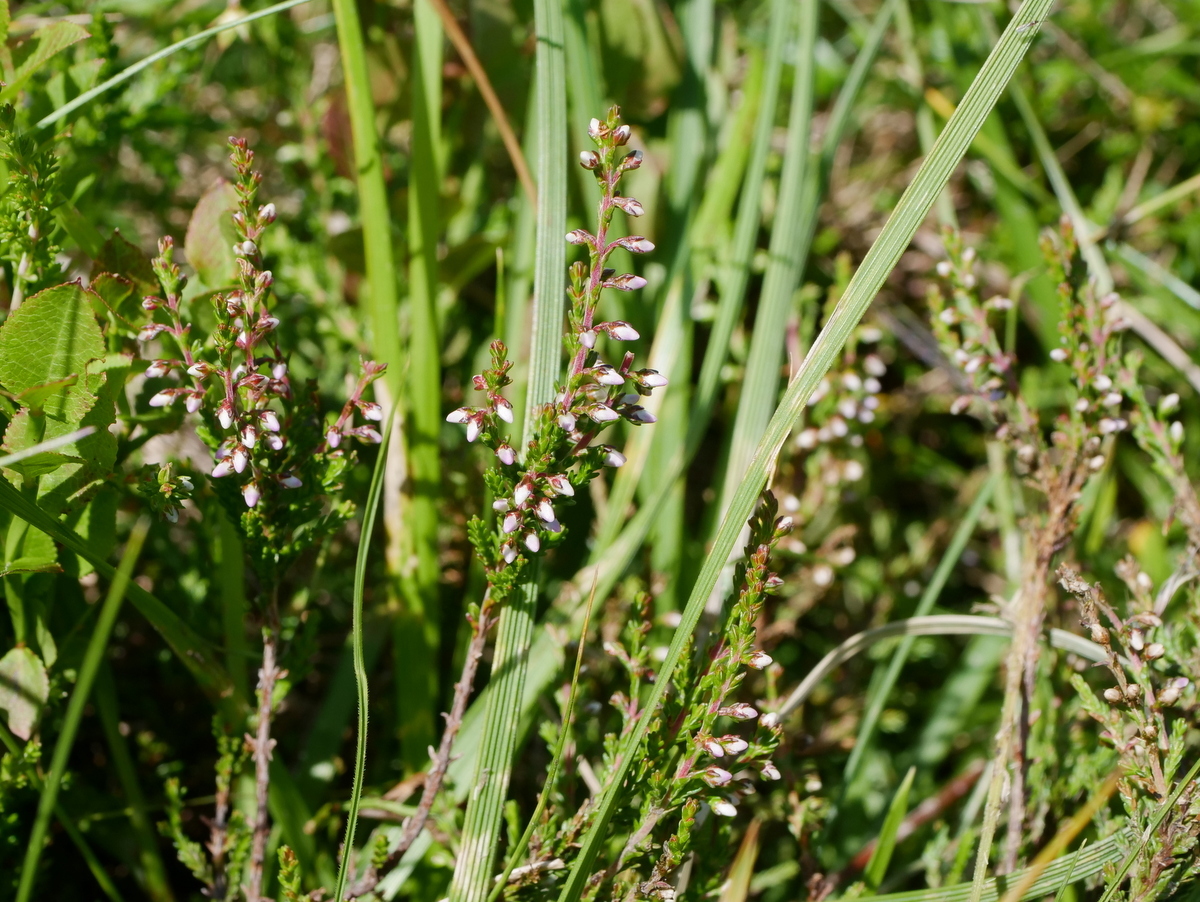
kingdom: Plantae
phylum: Tracheophyta
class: Magnoliopsida
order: Ericales
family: Ericaceae
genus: Calluna
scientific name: Calluna vulgaris
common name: Heather
